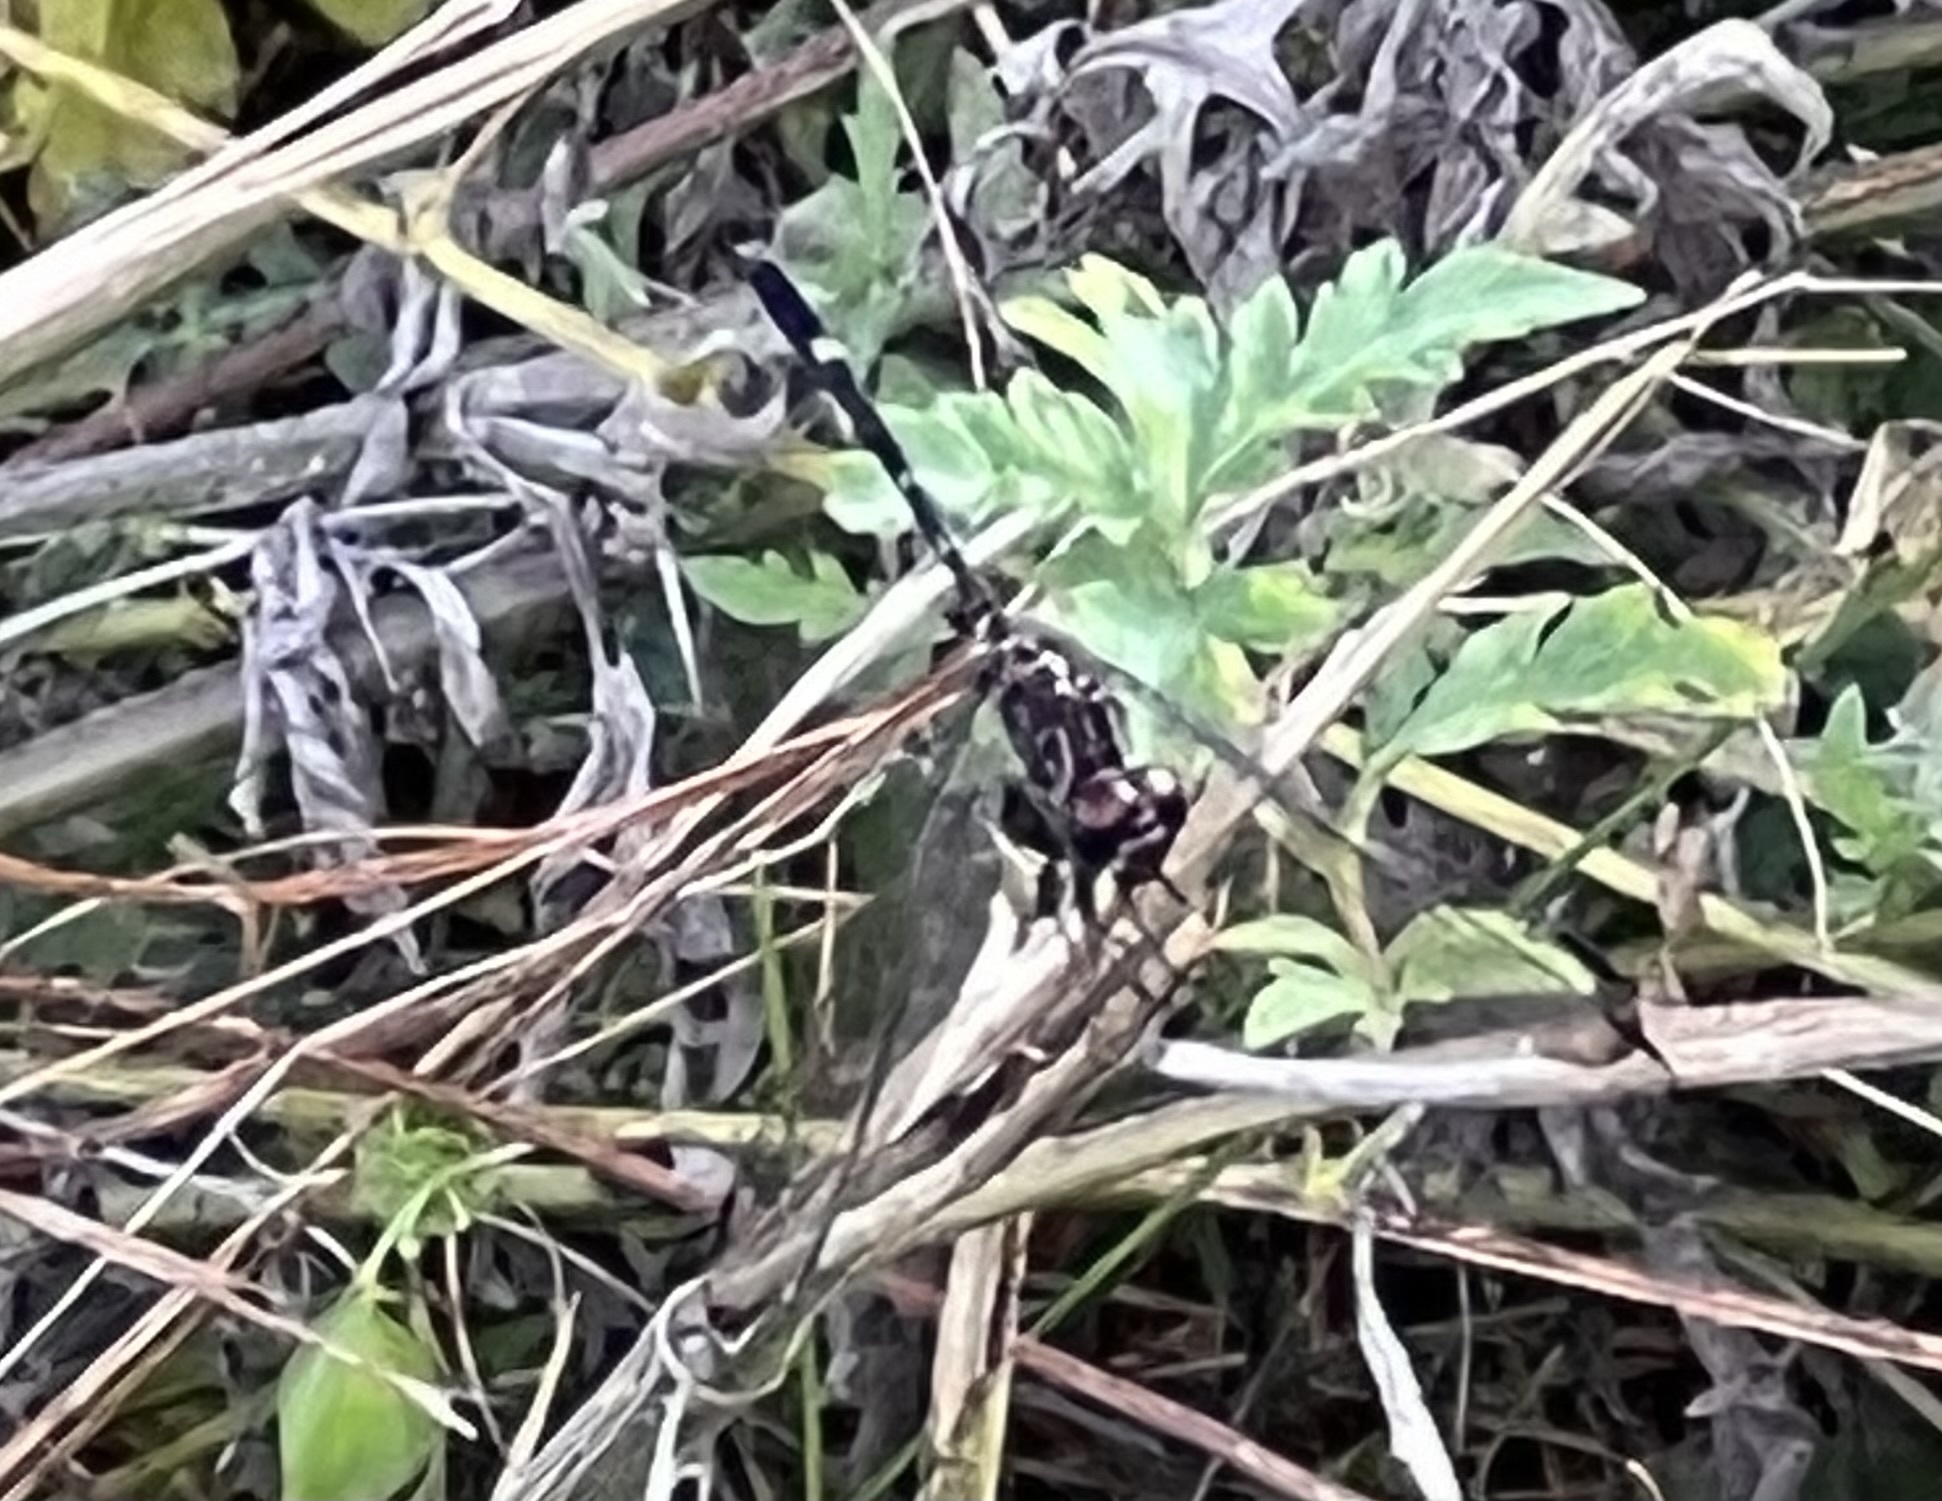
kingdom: Animalia
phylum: Arthropoda
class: Insecta
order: Odonata
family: Libellulidae
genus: Dythemis
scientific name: Dythemis velox
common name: Swift setwing
